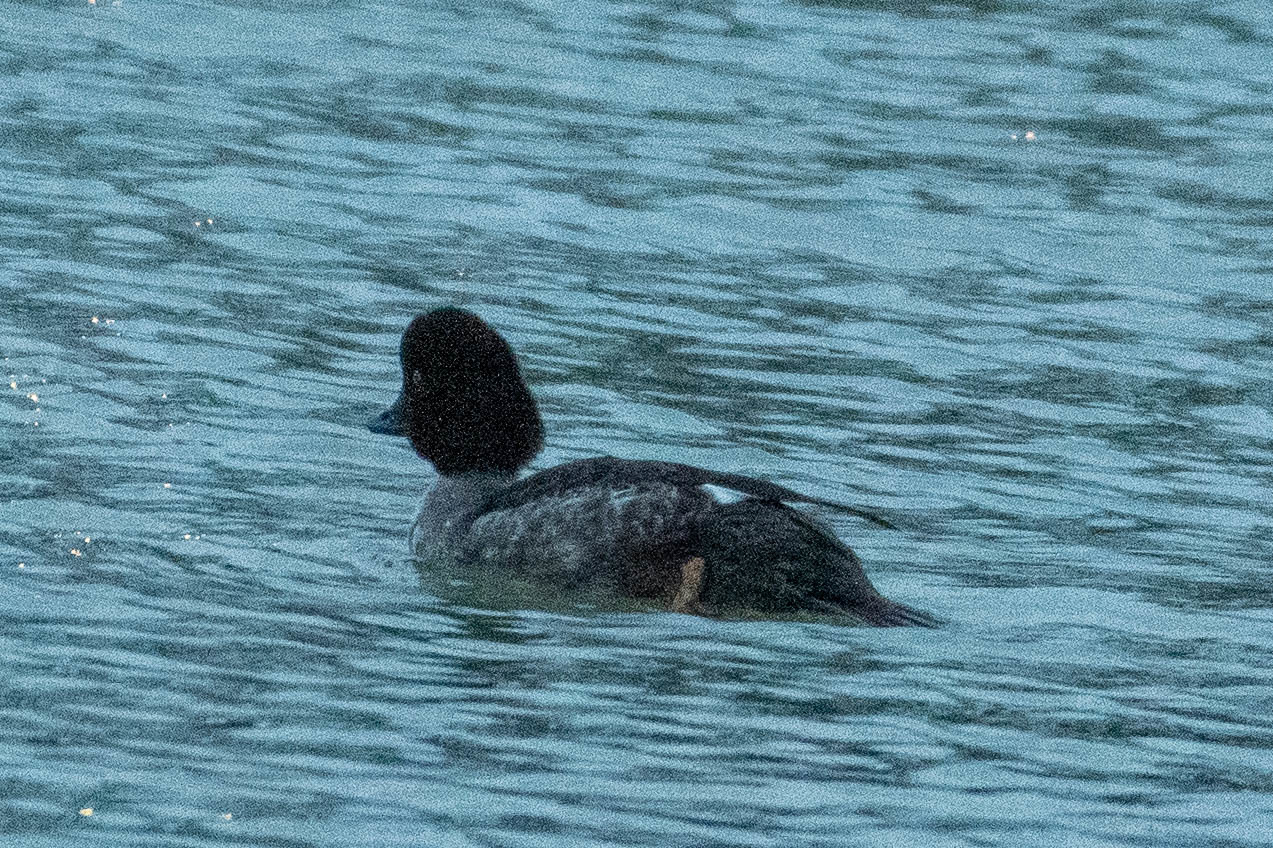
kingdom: Animalia
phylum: Chordata
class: Aves
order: Anseriformes
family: Anatidae
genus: Bucephala
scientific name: Bucephala clangula
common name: Common goldeneye
